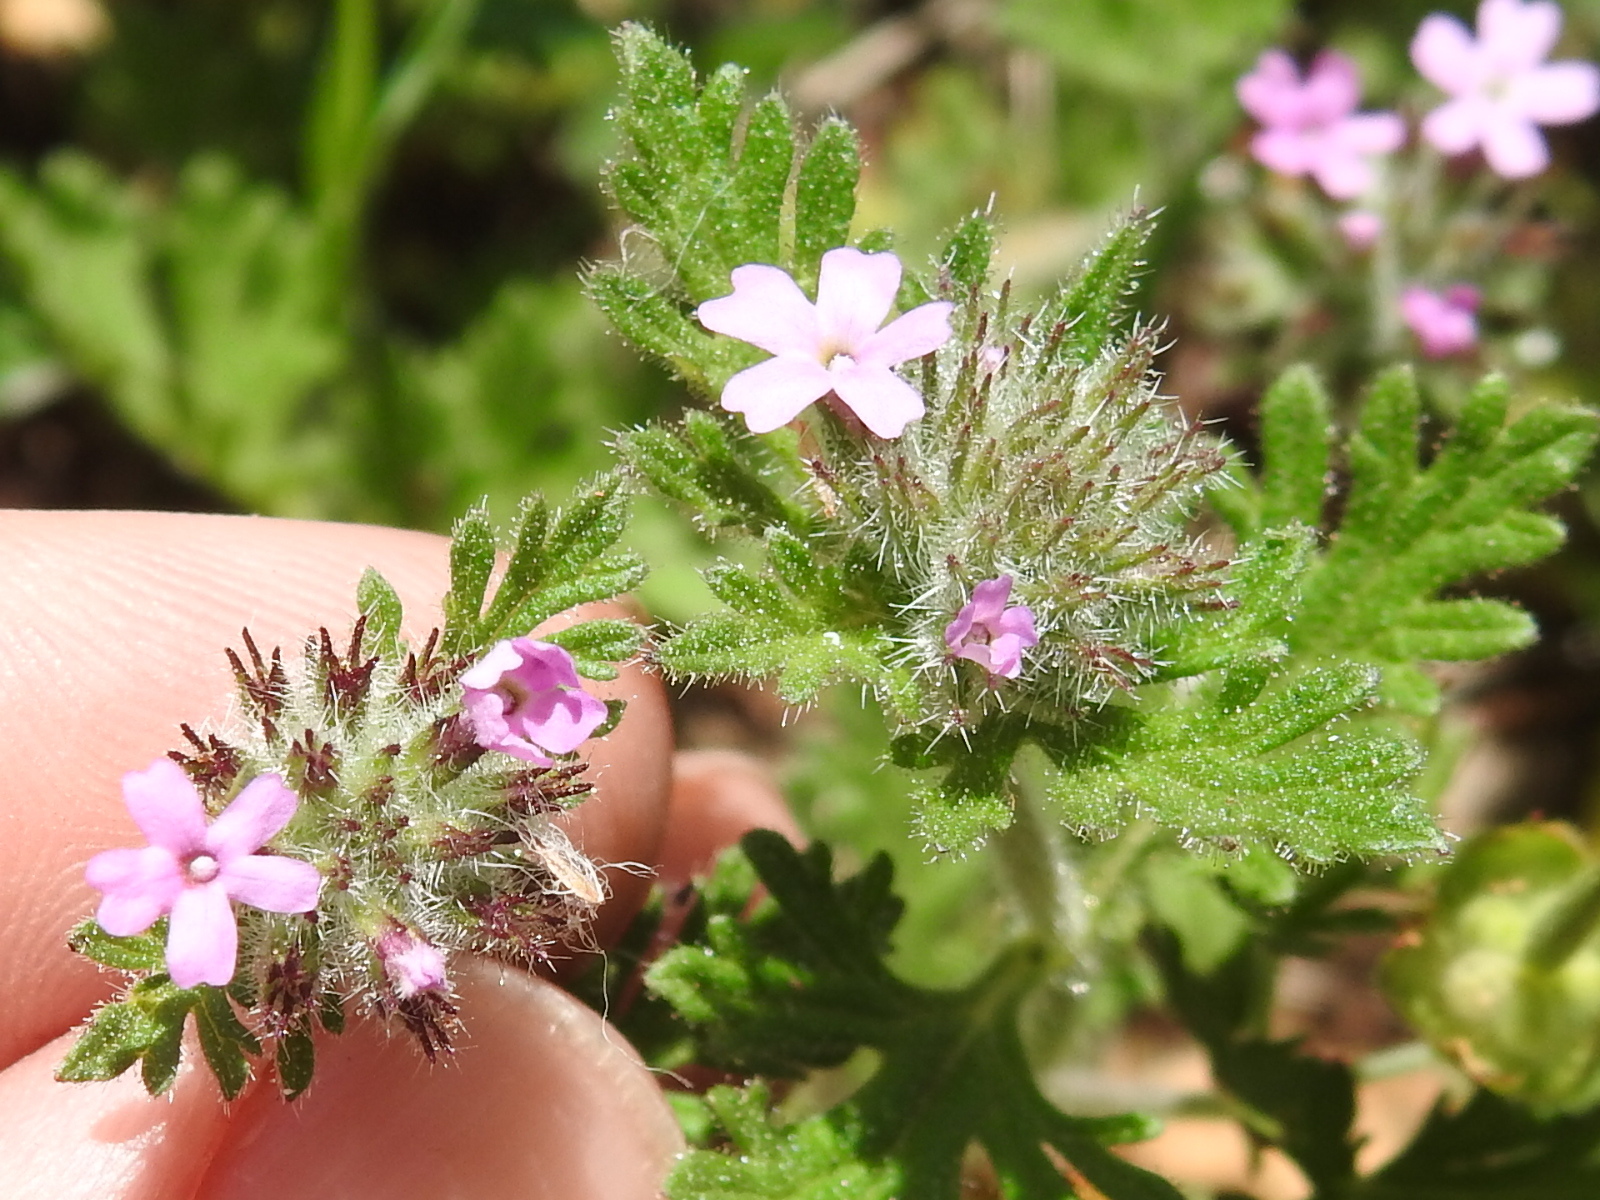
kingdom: Plantae
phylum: Tracheophyta
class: Magnoliopsida
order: Lamiales
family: Verbenaceae
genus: Verbena
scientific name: Verbena pumila
